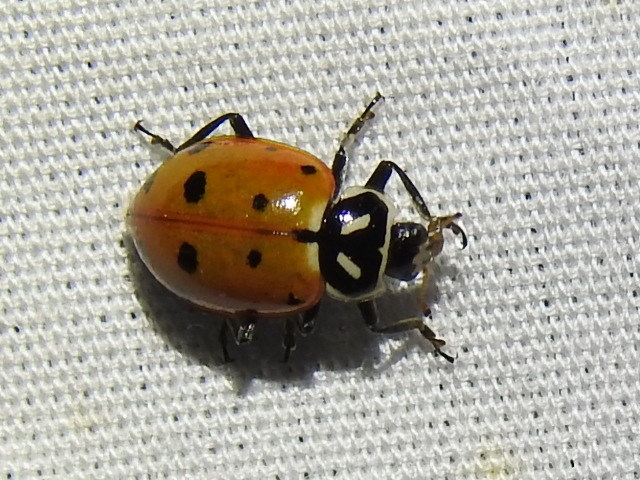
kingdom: Animalia
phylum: Arthropoda
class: Insecta
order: Coleoptera
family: Coccinellidae
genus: Hippodamia
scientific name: Hippodamia convergens
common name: Convergent lady beetle
